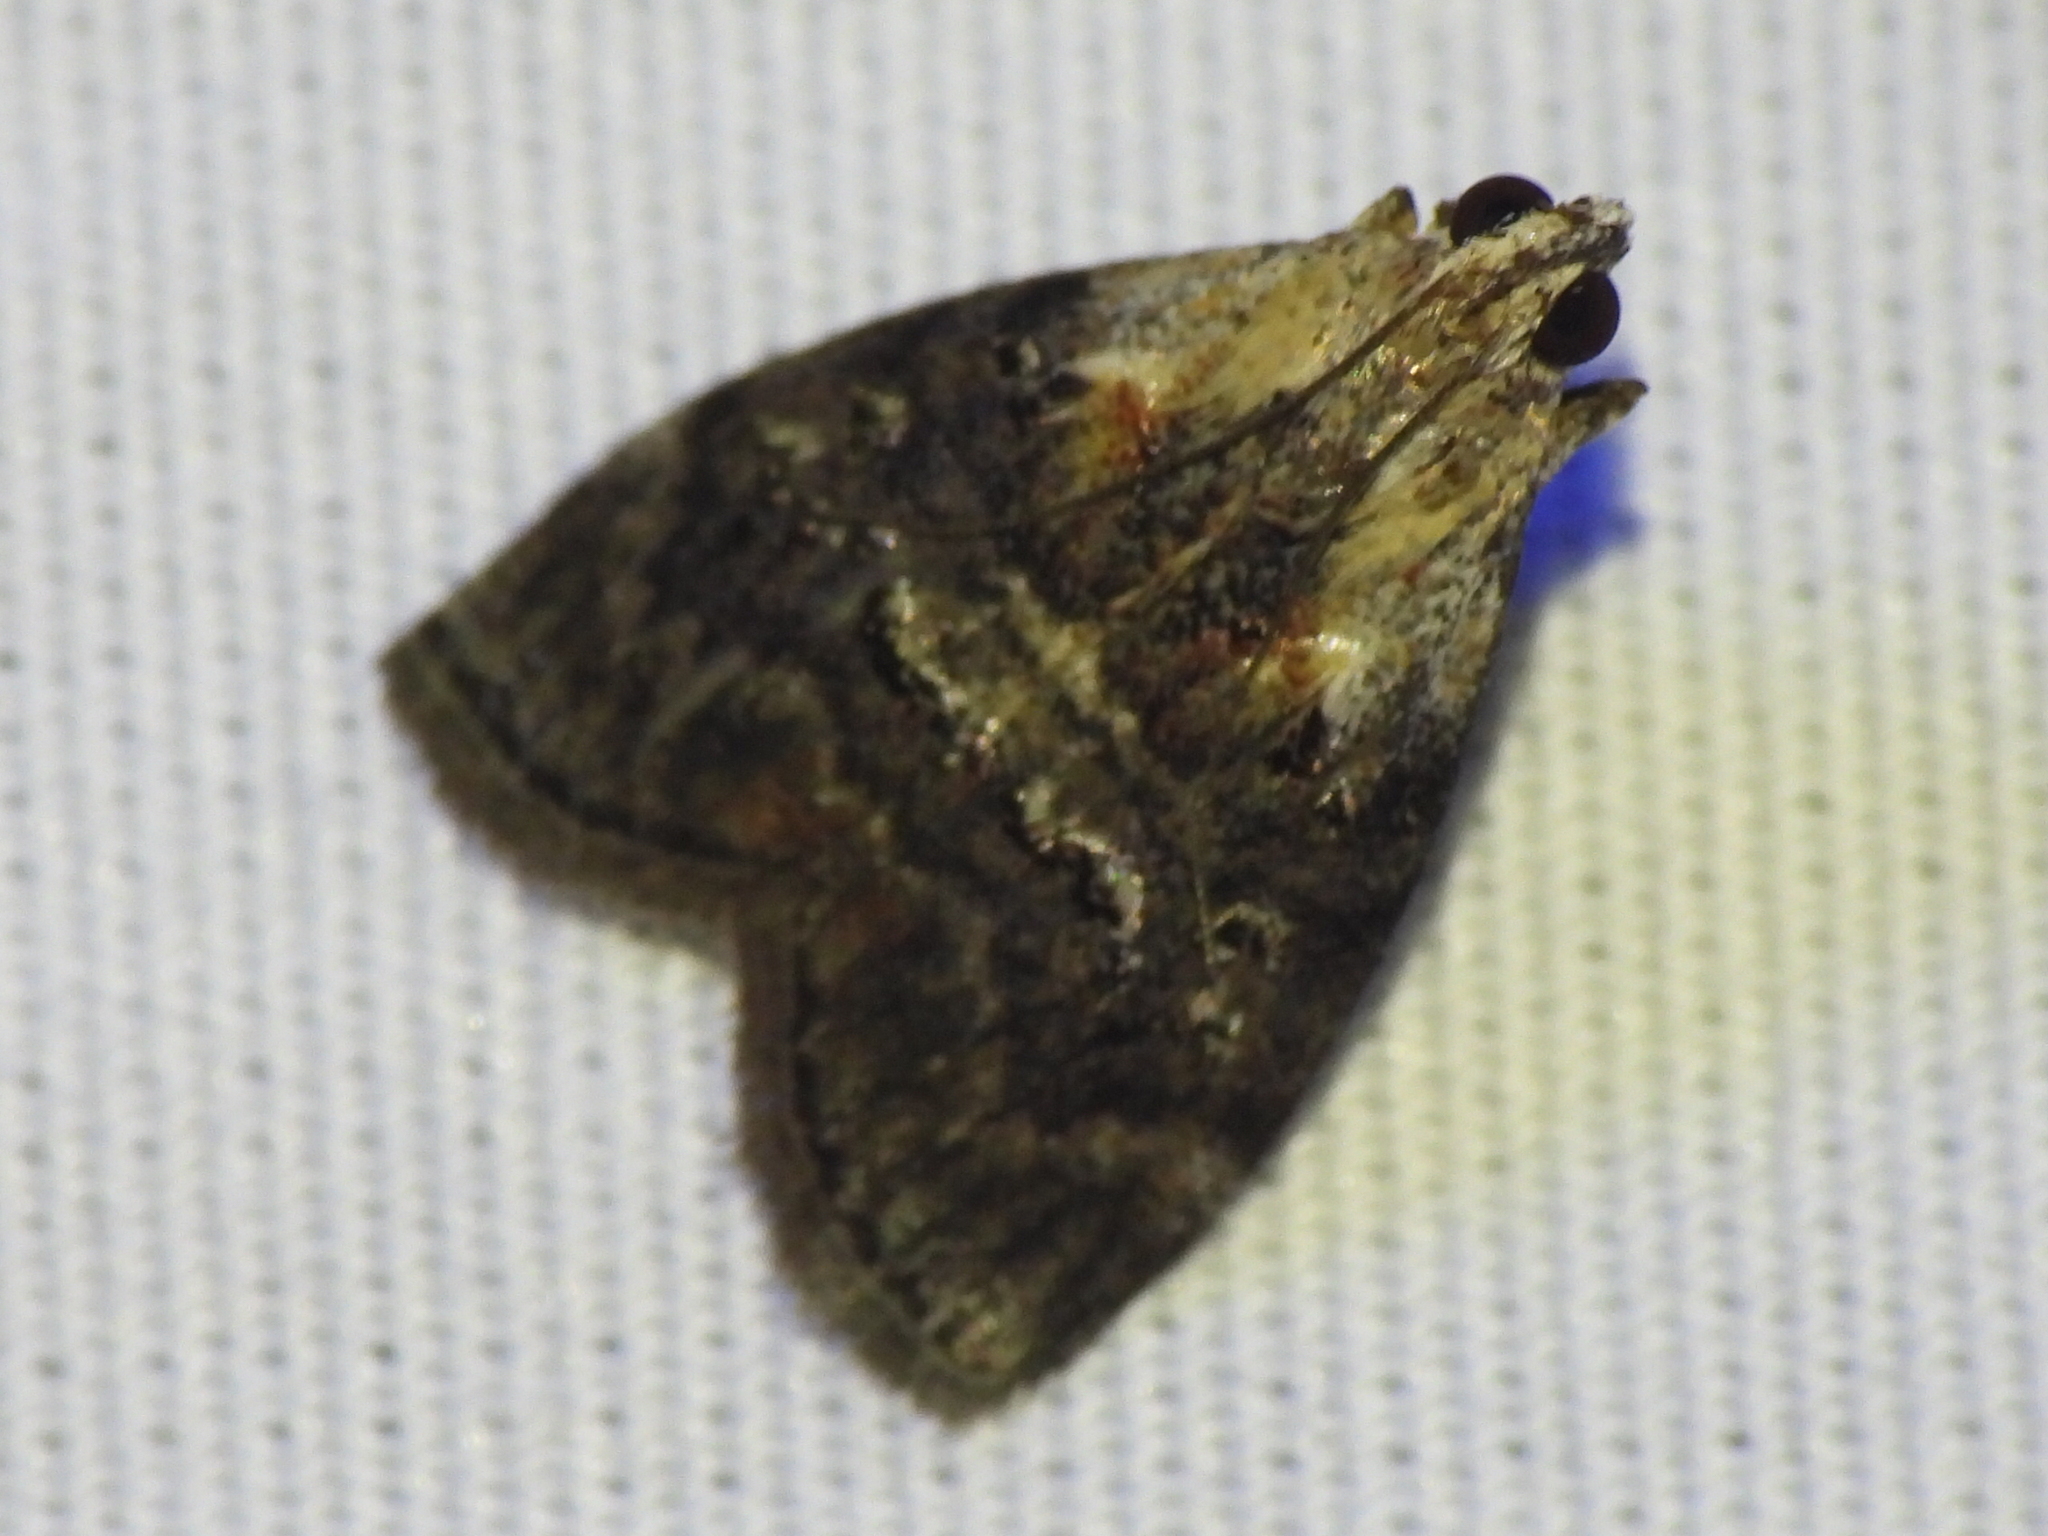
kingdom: Animalia
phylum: Arthropoda
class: Insecta
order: Lepidoptera
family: Pyralidae
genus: Pococera
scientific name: Pococera expandens
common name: Striped oak webworm moth
